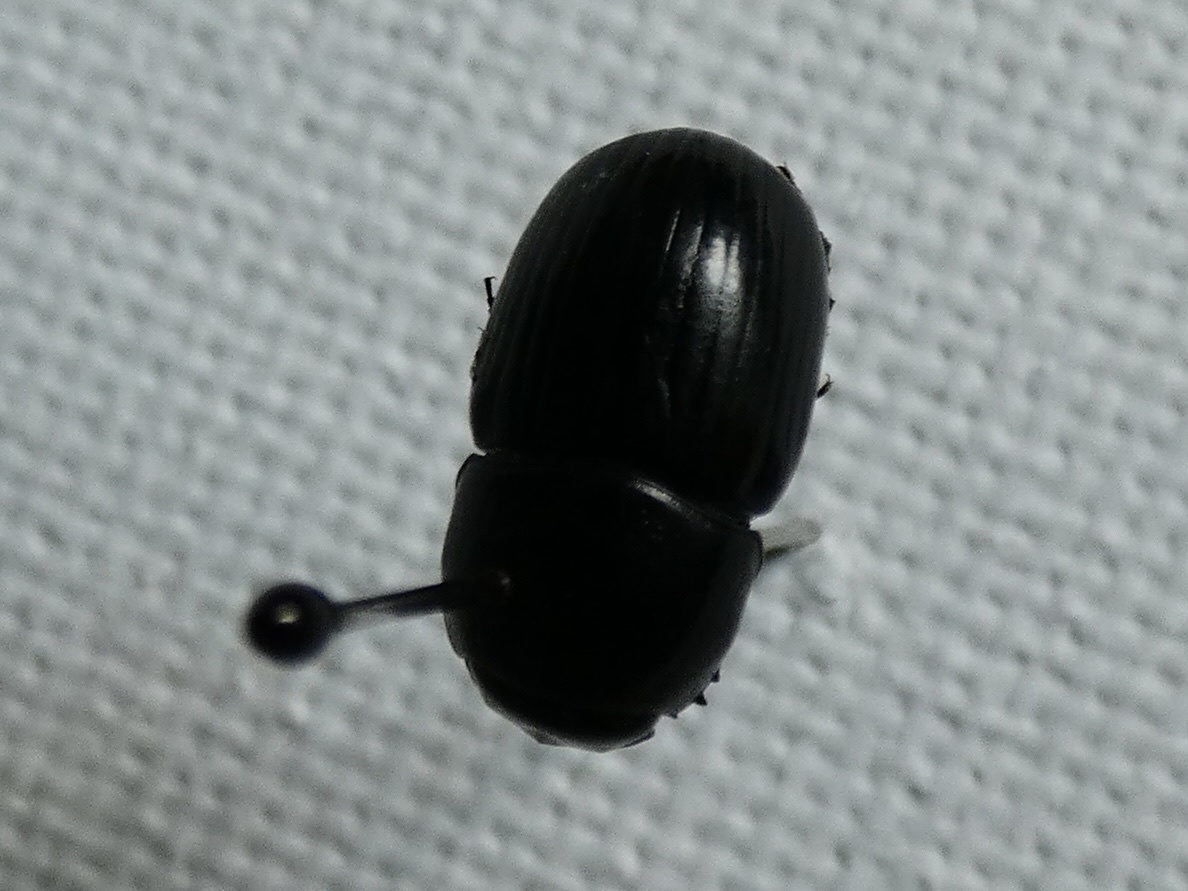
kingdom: Animalia
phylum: Arthropoda
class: Insecta
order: Coleoptera
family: Scarabaeidae
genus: Teuchestes
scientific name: Teuchestes fossor
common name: Digger small dung beetle
